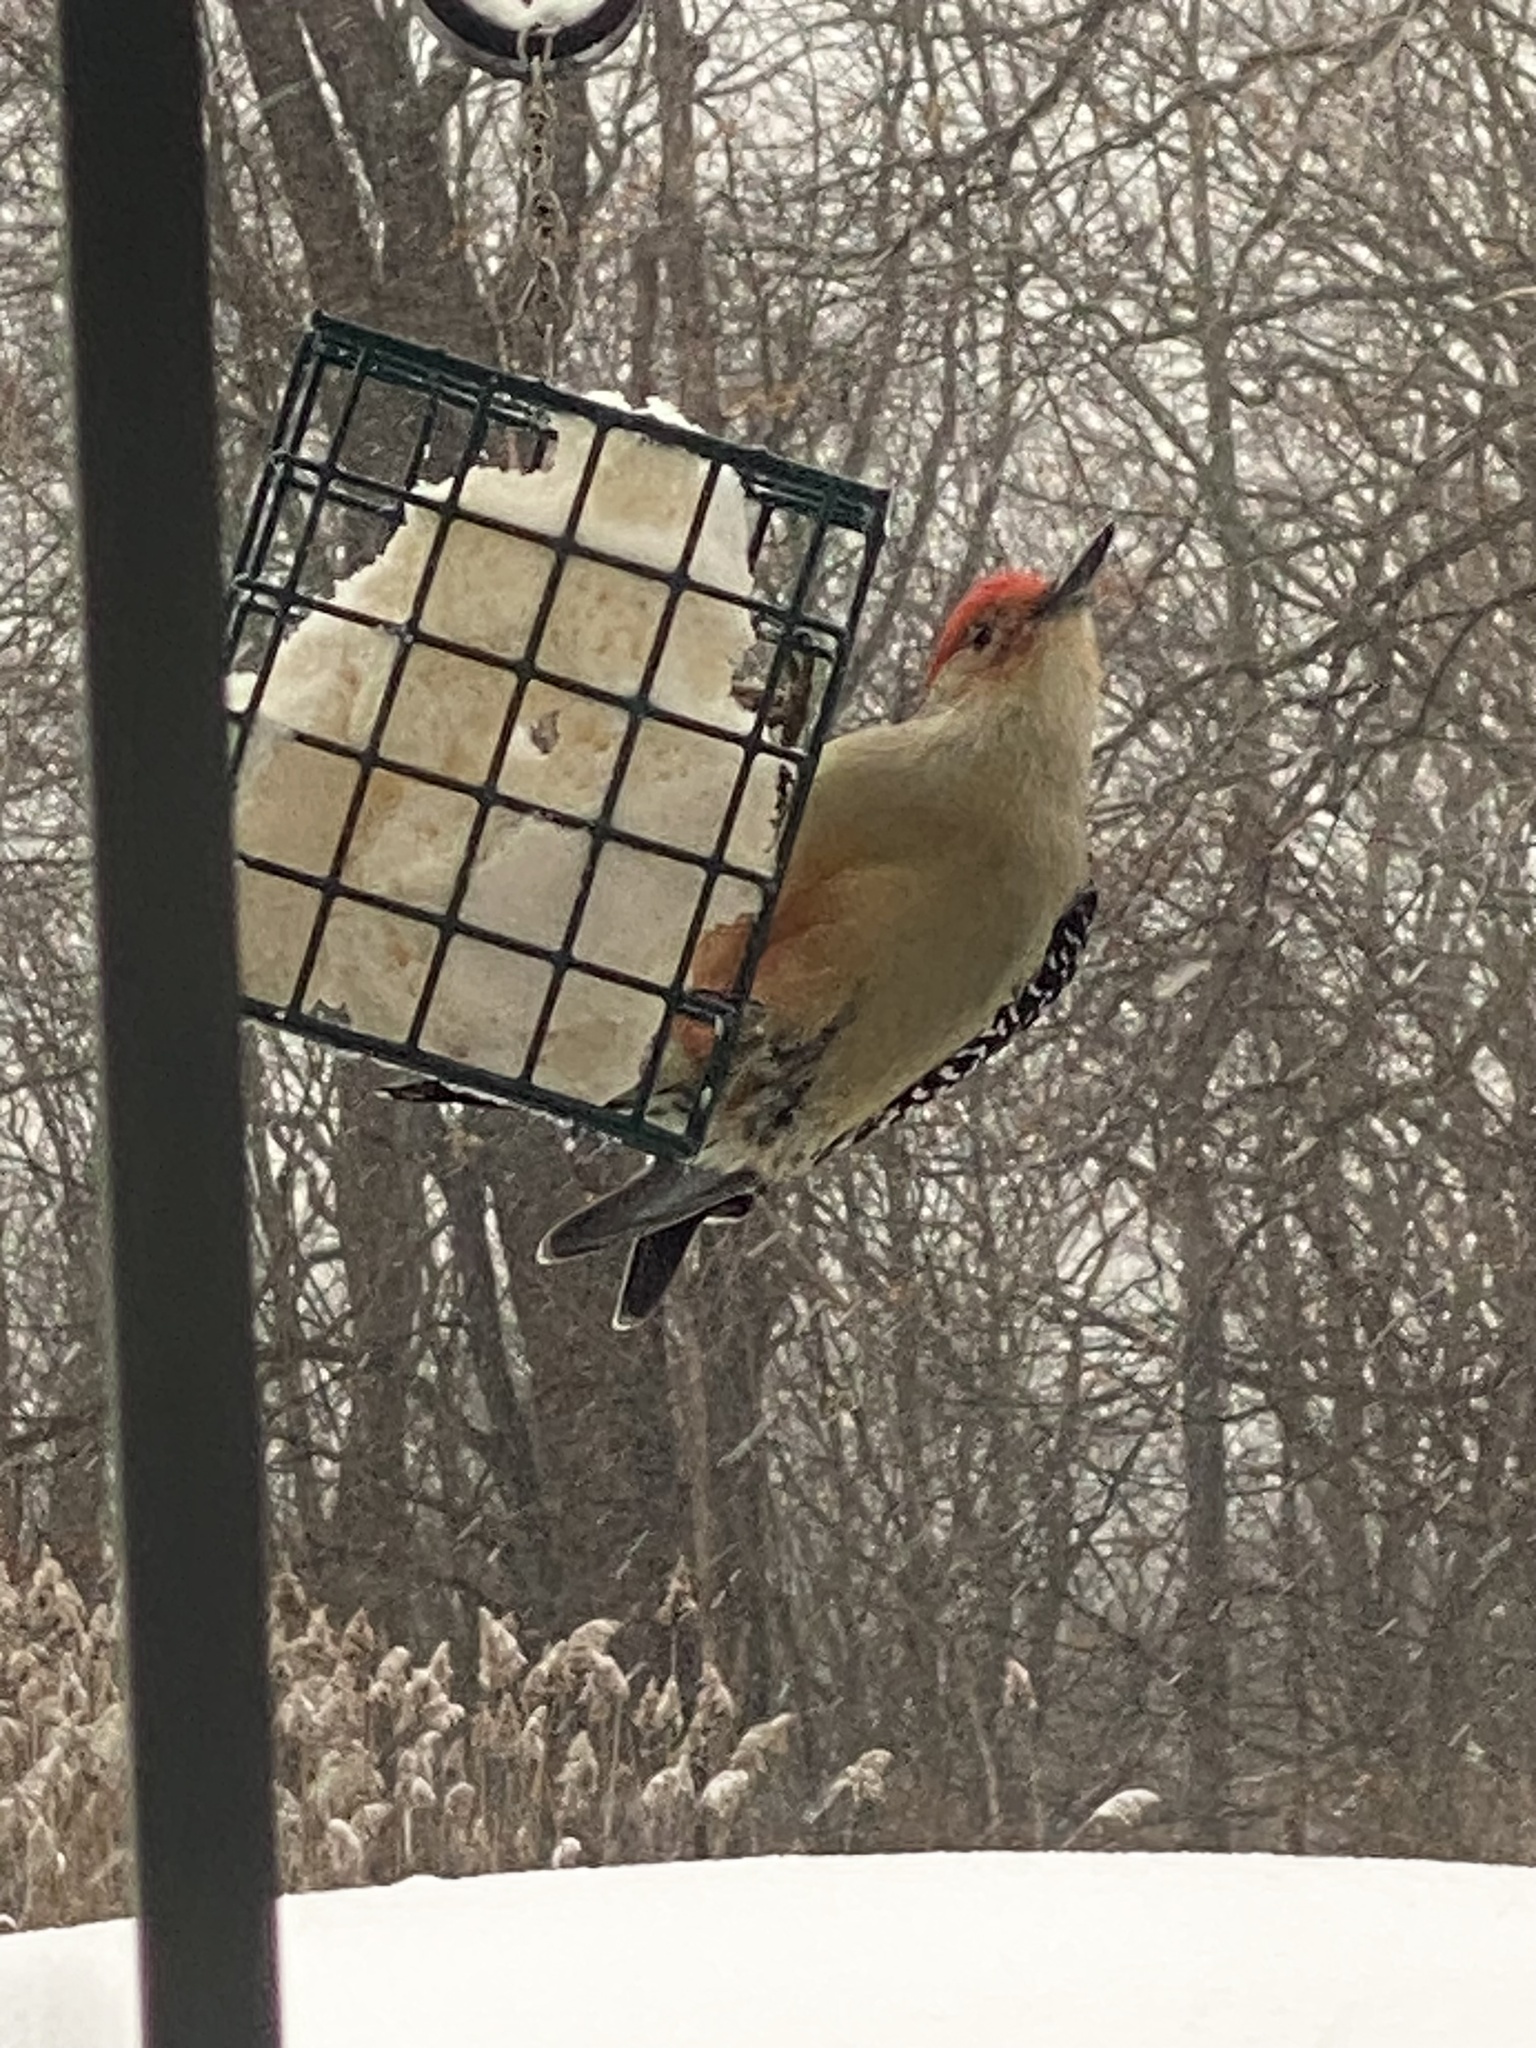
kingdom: Animalia
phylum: Chordata
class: Aves
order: Piciformes
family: Picidae
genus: Melanerpes
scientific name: Melanerpes carolinus
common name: Red-bellied woodpecker
